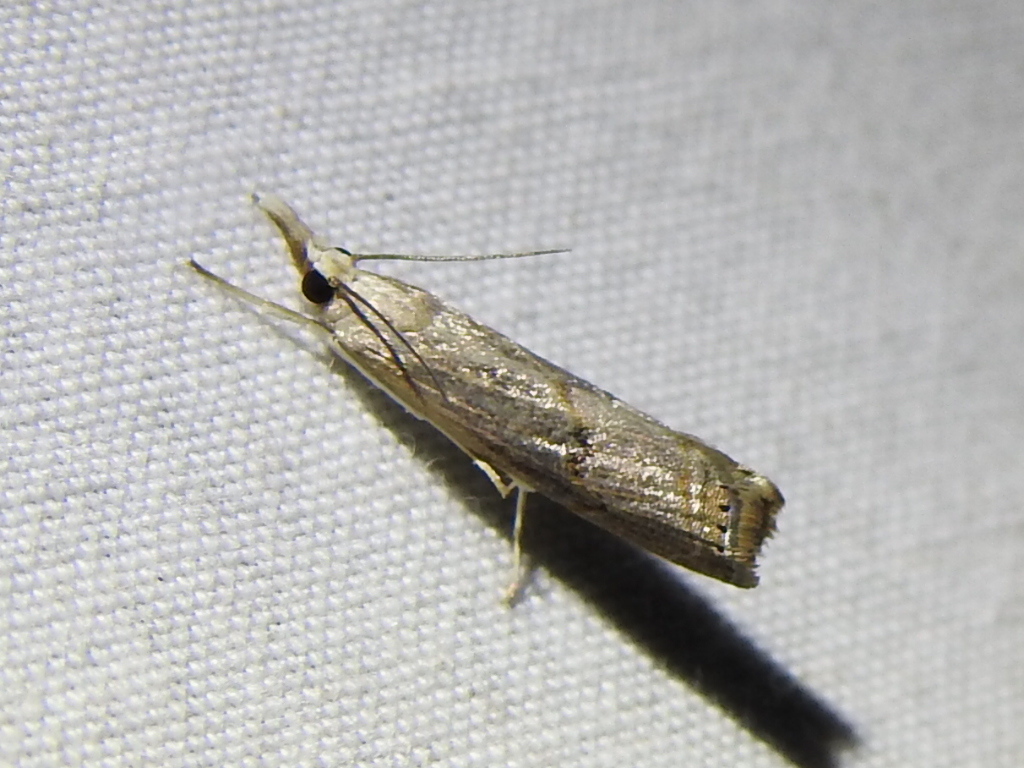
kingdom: Animalia
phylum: Arthropoda
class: Insecta
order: Lepidoptera
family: Crambidae
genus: Parapediasia
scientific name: Parapediasia teterellus
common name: Bluegrass webworm moth
